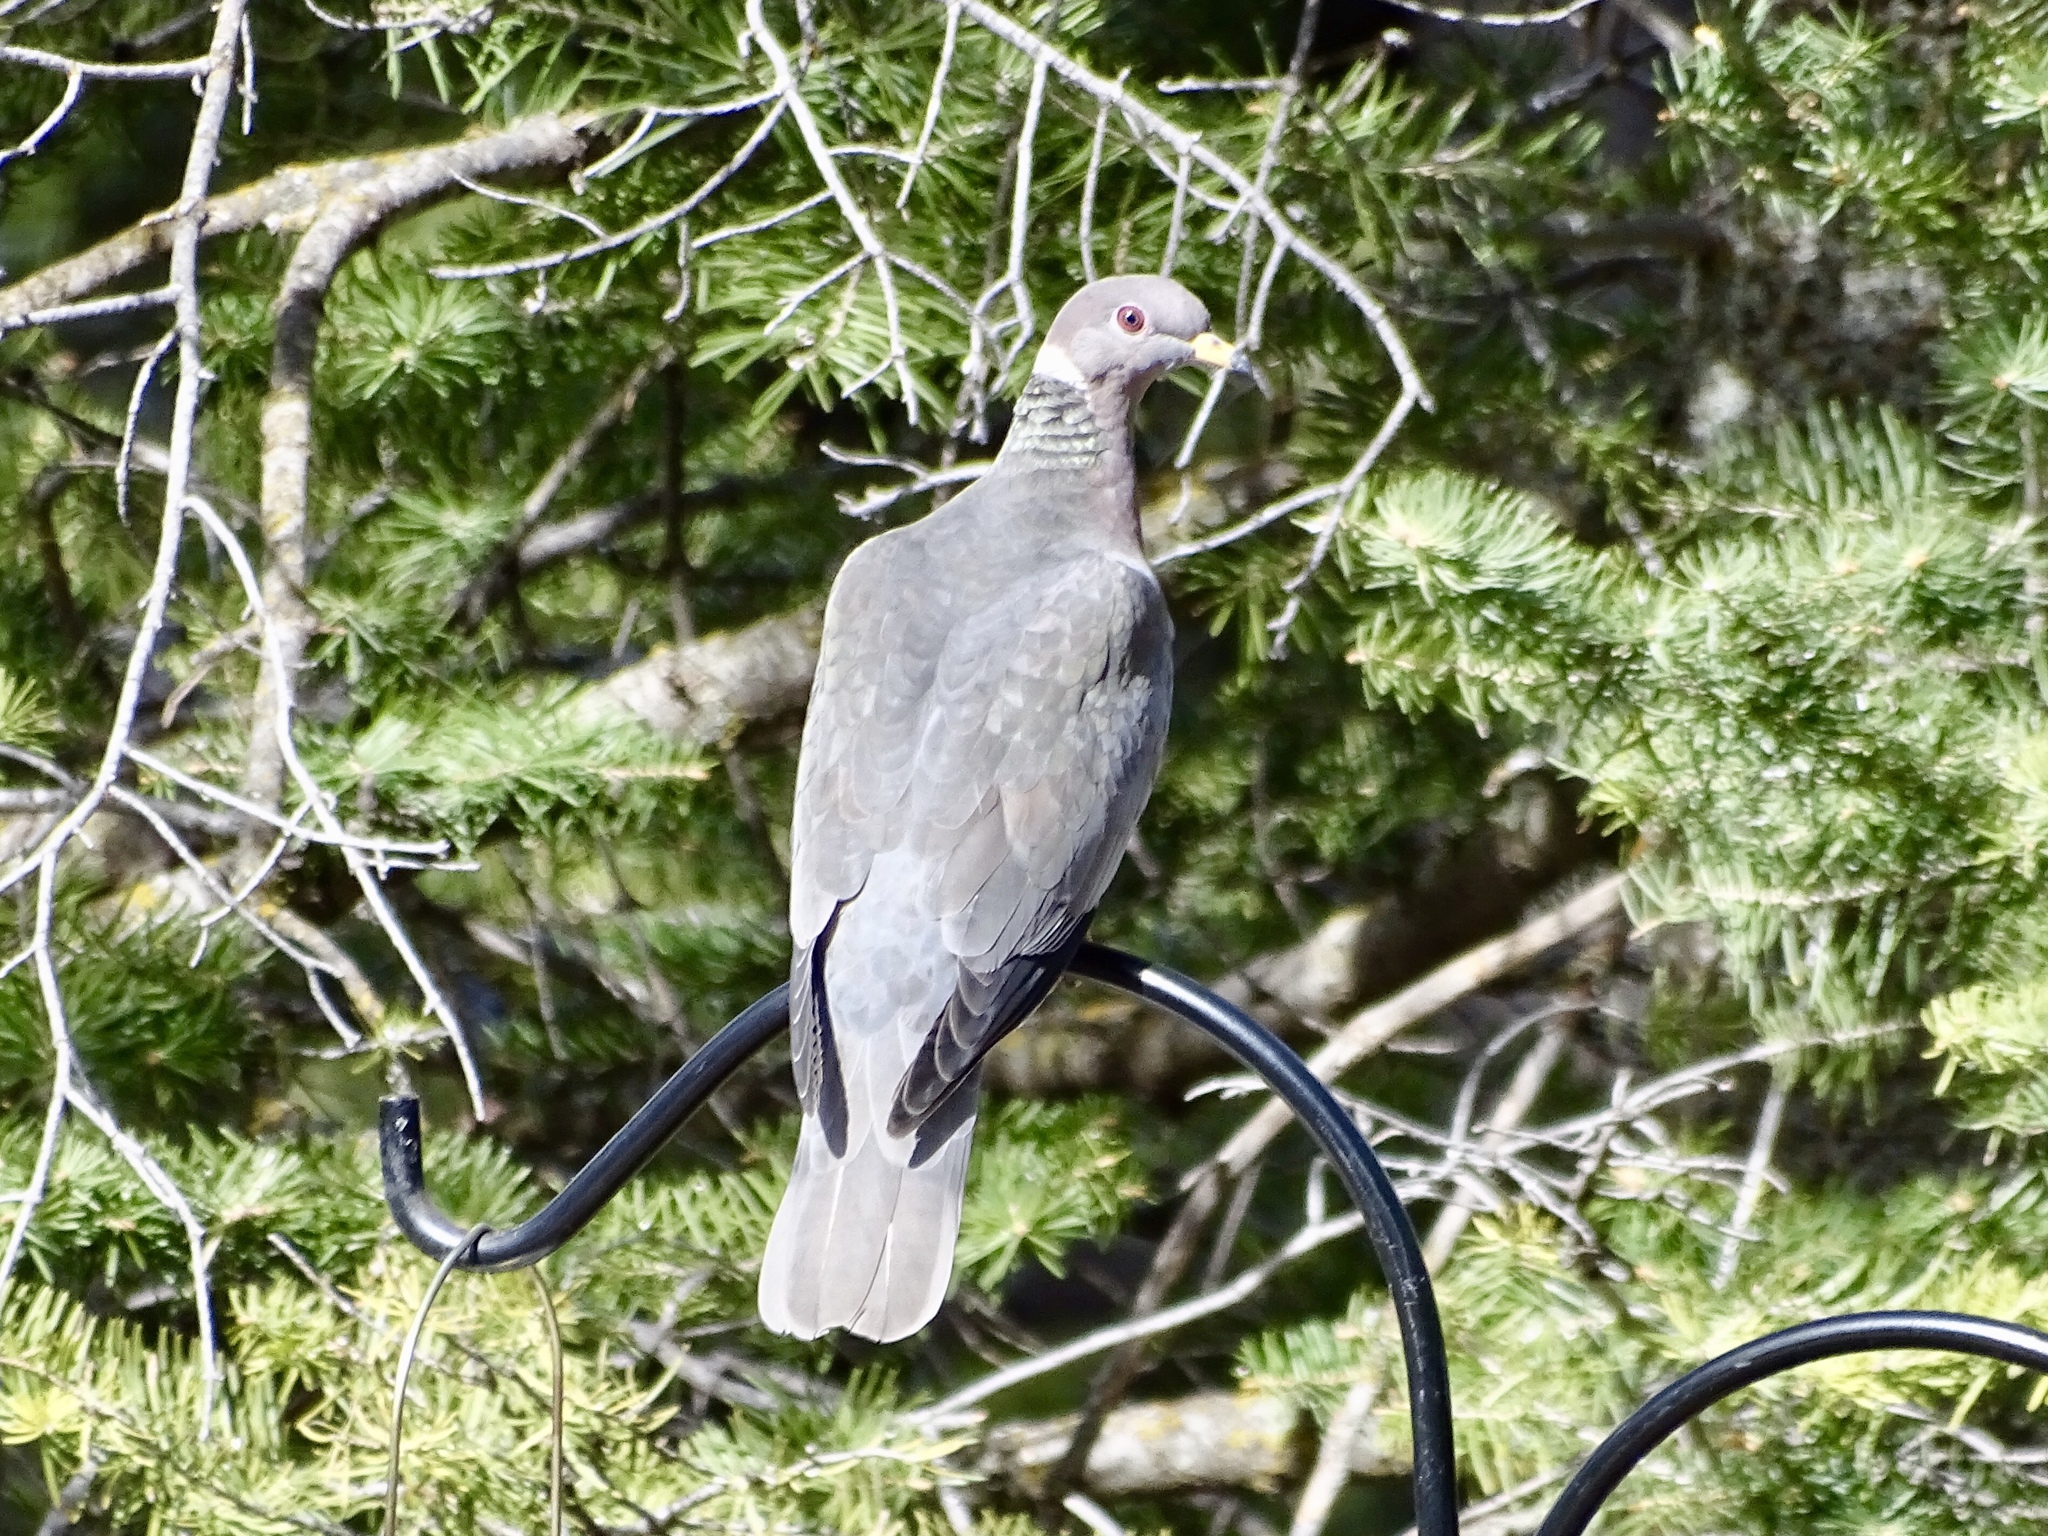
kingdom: Animalia
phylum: Chordata
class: Aves
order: Columbiformes
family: Columbidae
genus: Patagioenas
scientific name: Patagioenas fasciata
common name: Band-tailed pigeon
